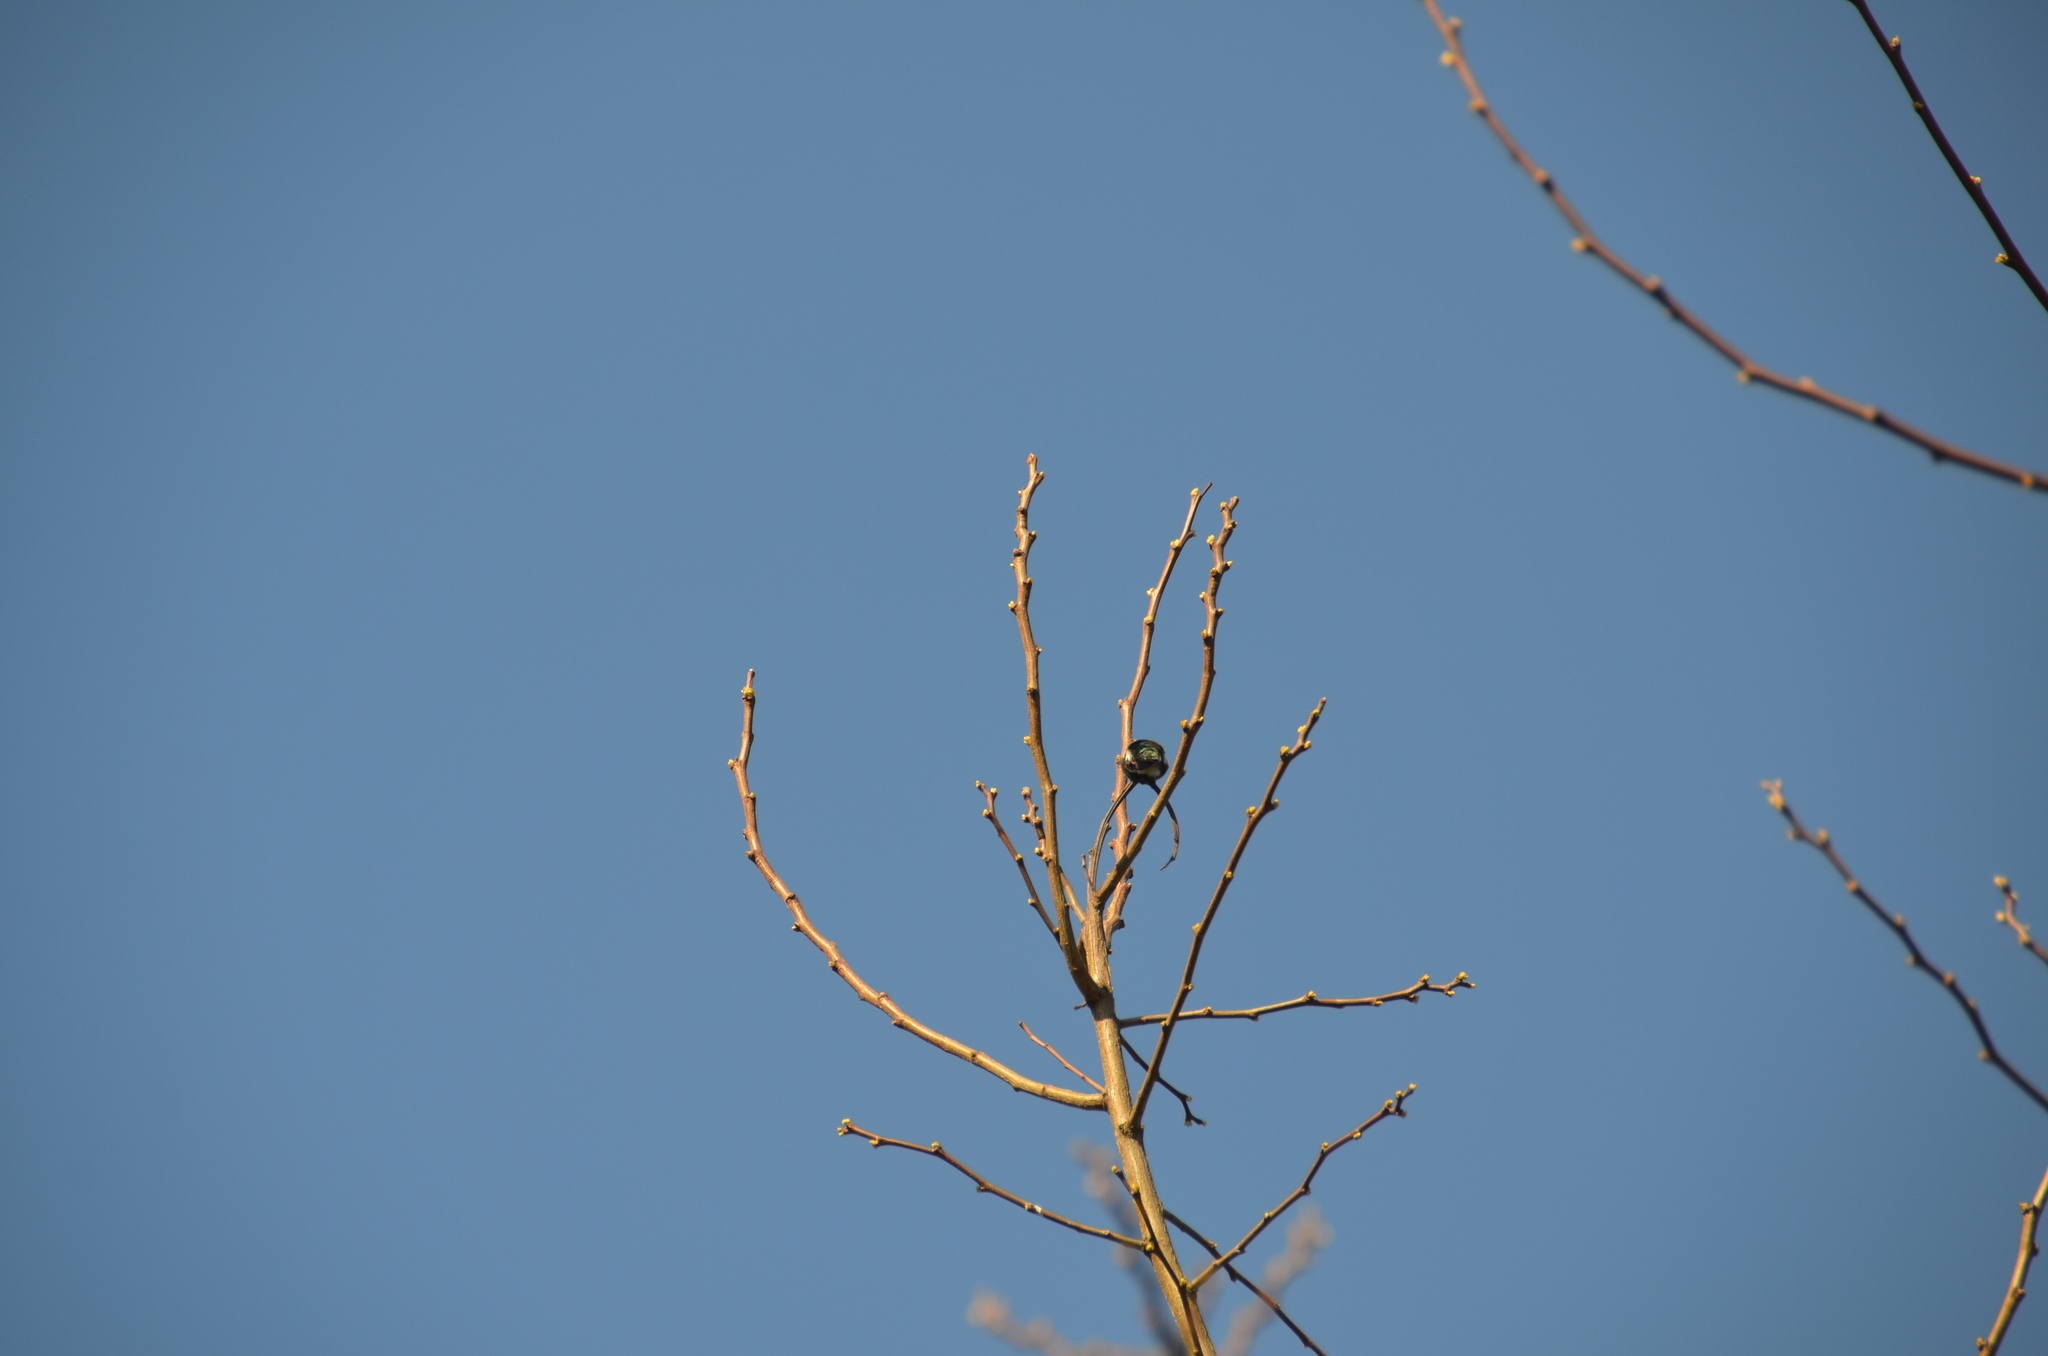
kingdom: Animalia
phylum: Chordata
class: Aves
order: Apodiformes
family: Trochilidae
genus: Calypte
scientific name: Calypte anna
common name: Anna's hummingbird
